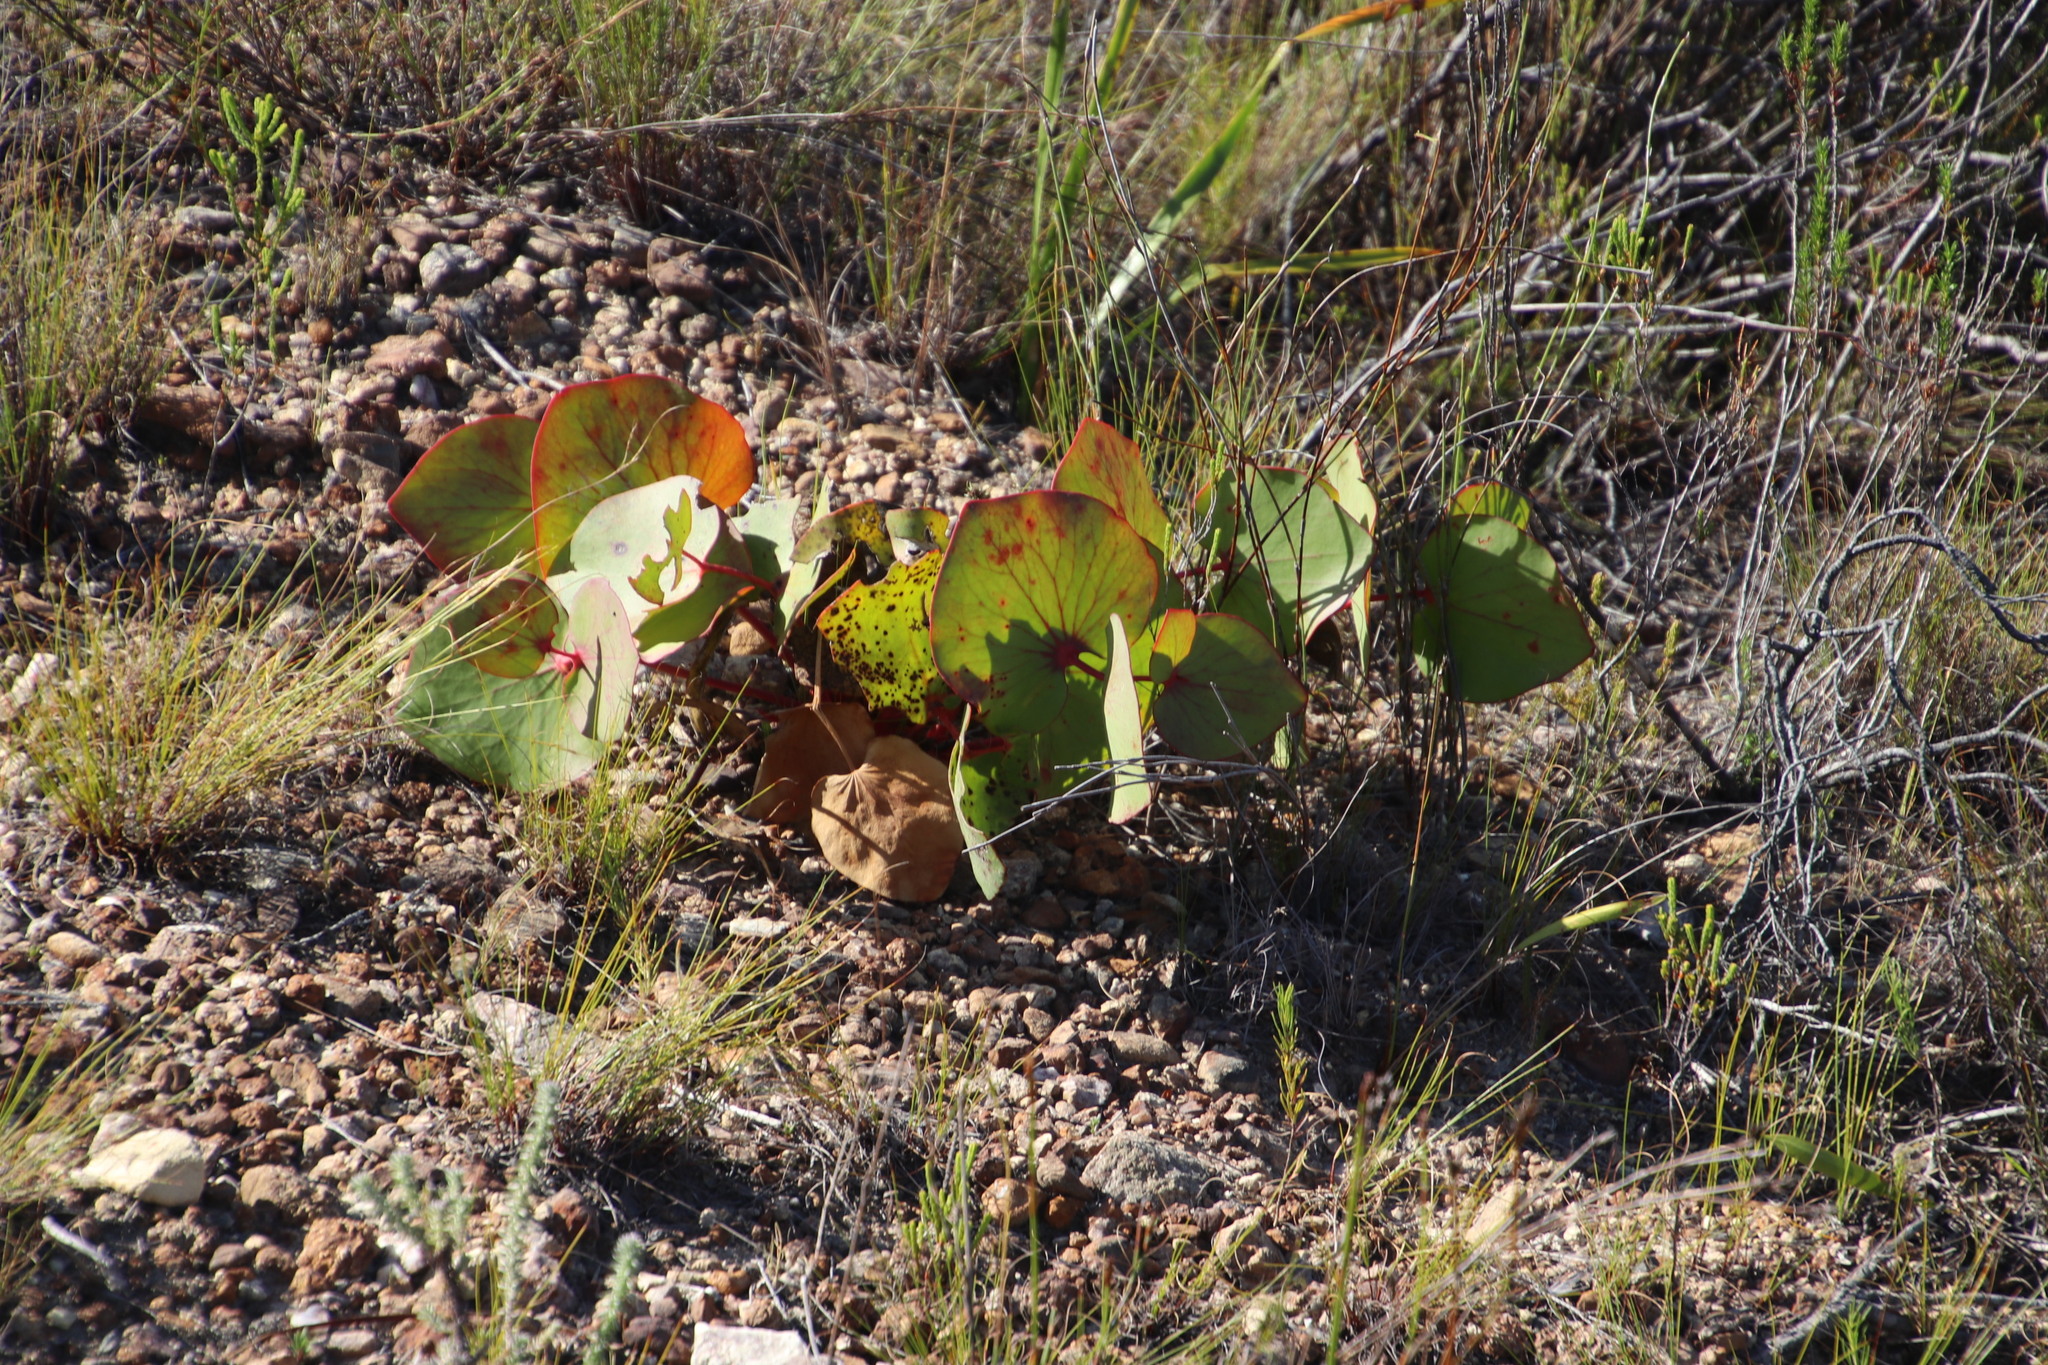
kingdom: Plantae
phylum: Tracheophyta
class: Magnoliopsida
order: Proteales
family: Proteaceae
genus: Protea
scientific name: Protea cordata
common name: Heart-leaf sugarbush
